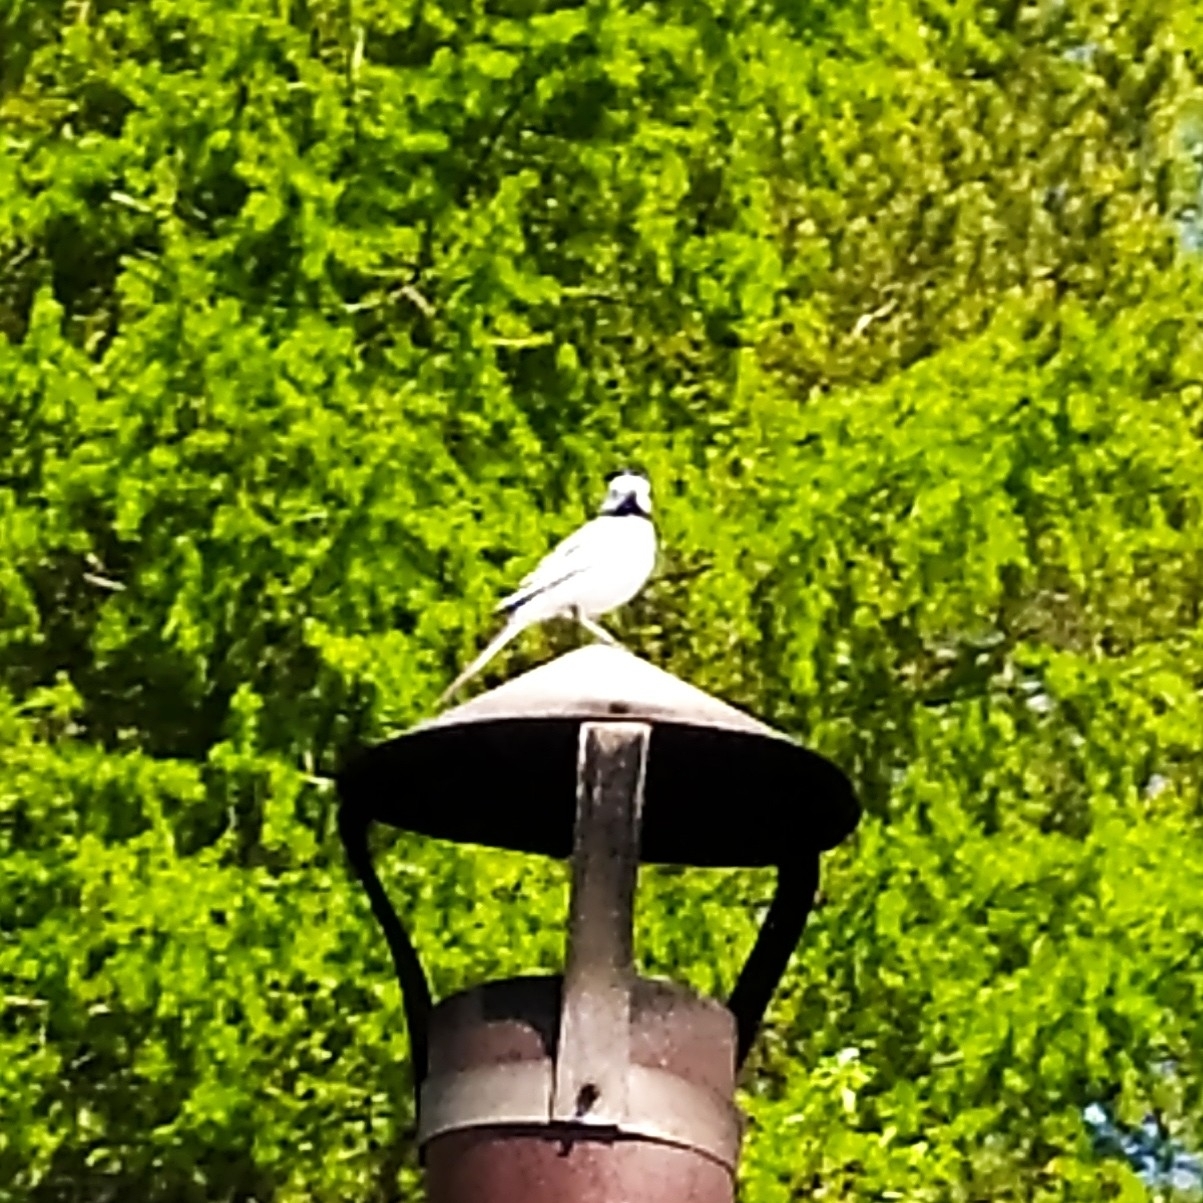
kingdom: Animalia
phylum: Chordata
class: Aves
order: Passeriformes
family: Motacillidae
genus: Motacilla
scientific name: Motacilla alba
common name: White wagtail
